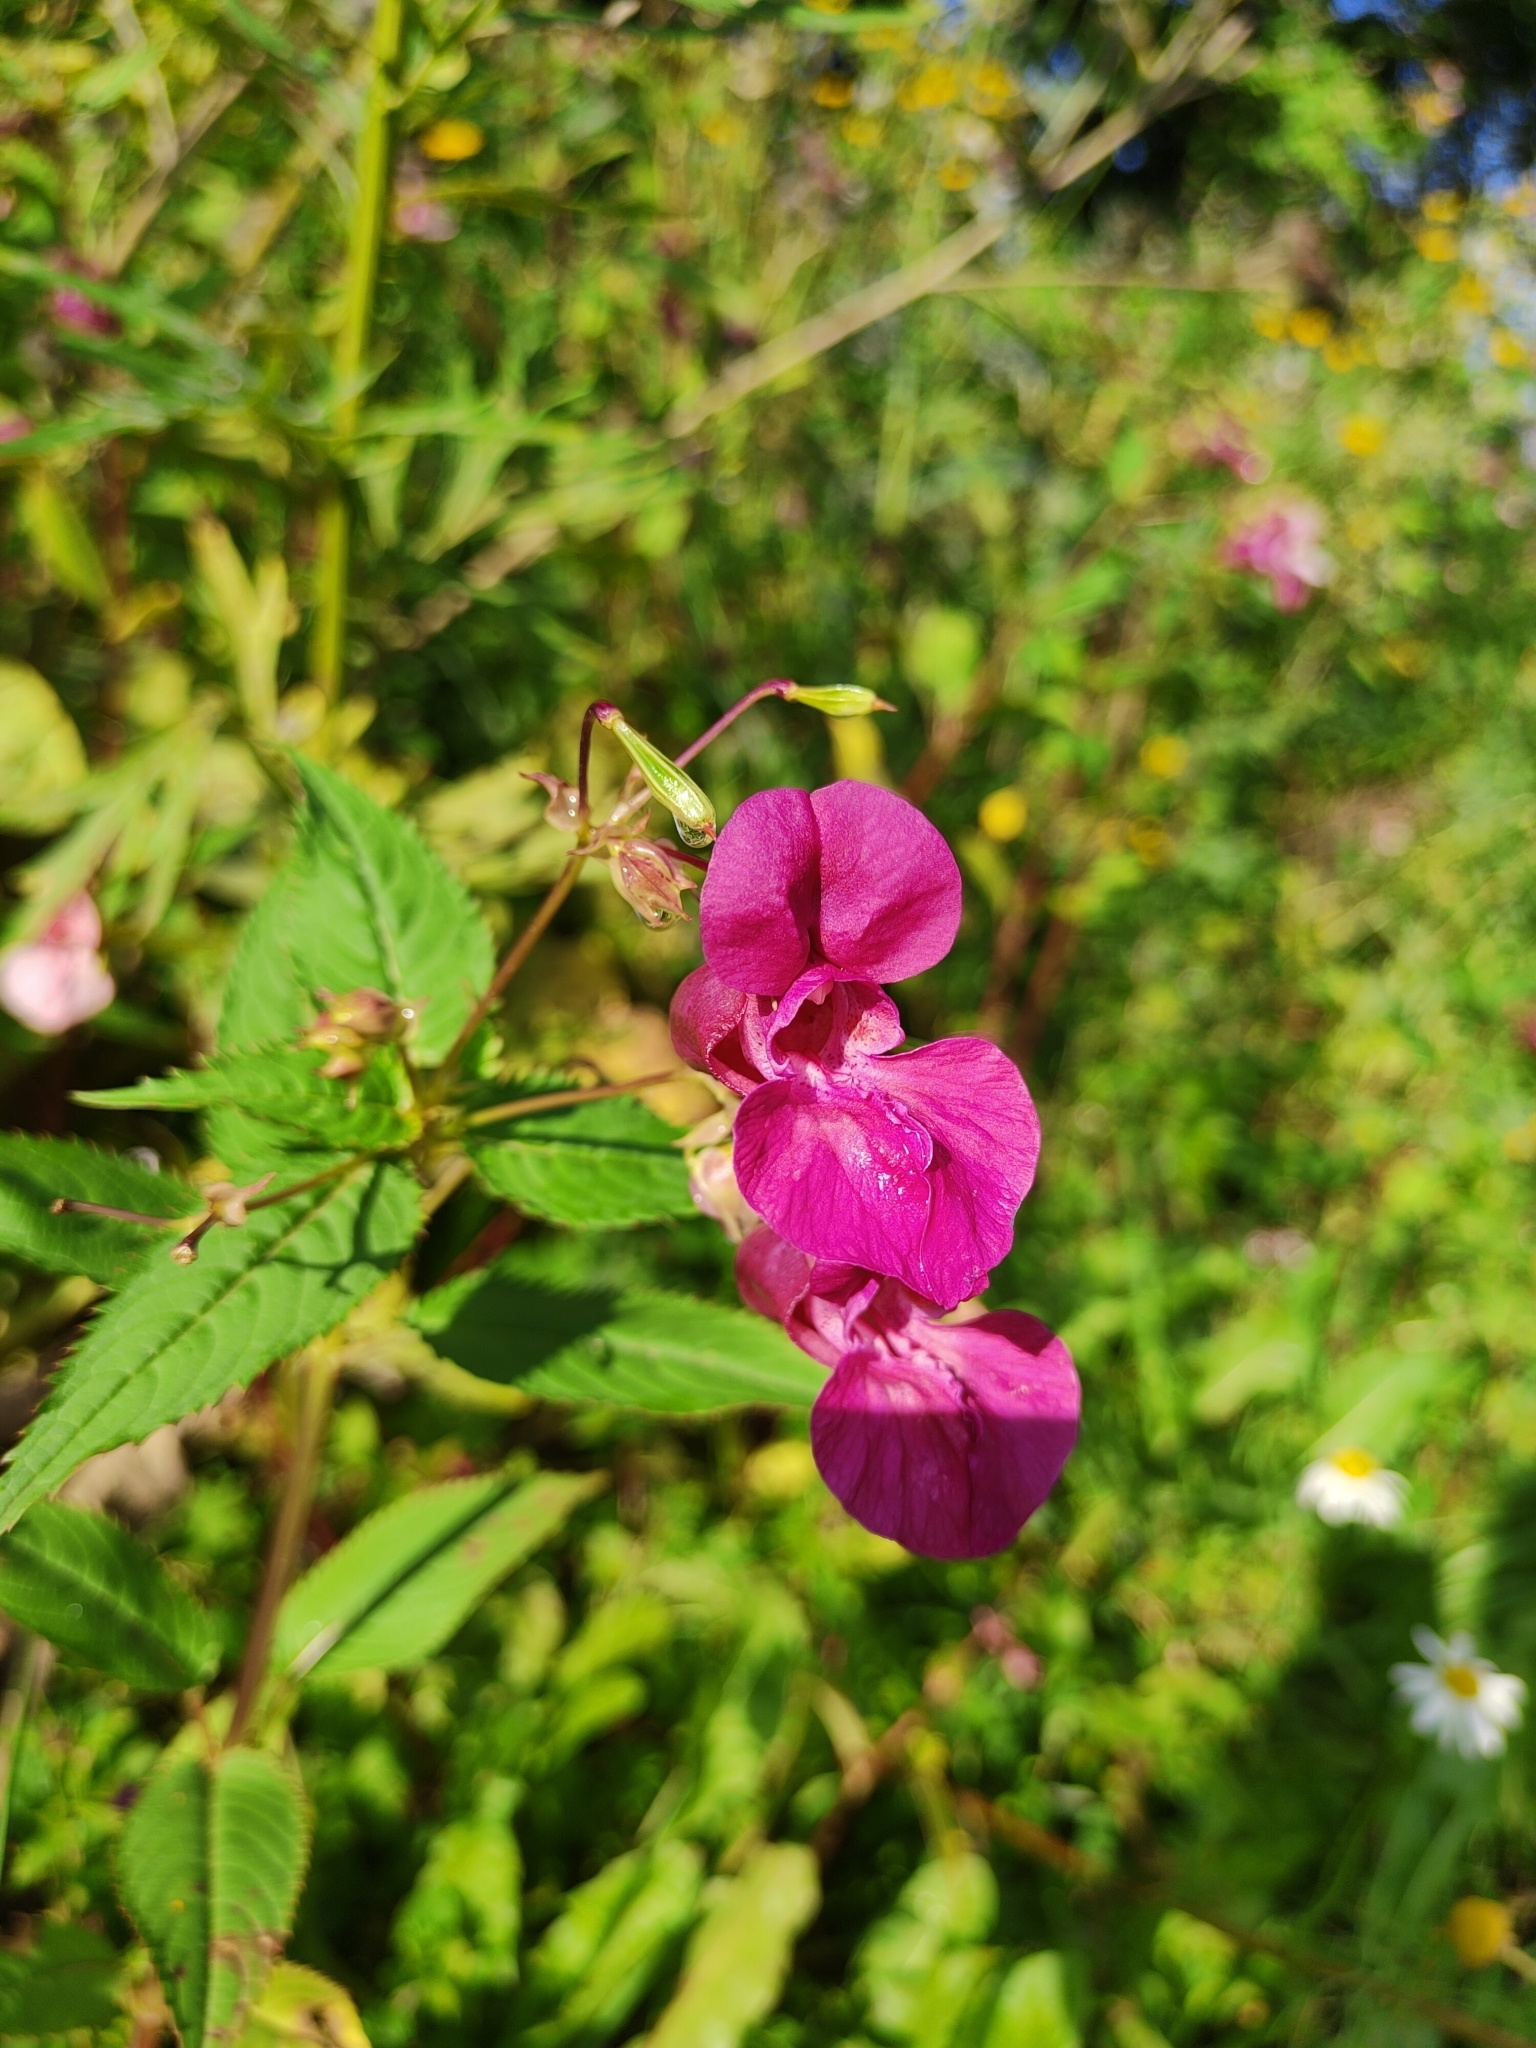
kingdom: Plantae
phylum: Tracheophyta
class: Magnoliopsida
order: Ericales
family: Balsaminaceae
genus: Impatiens
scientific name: Impatiens glandulifera
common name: Himalayan balsam
